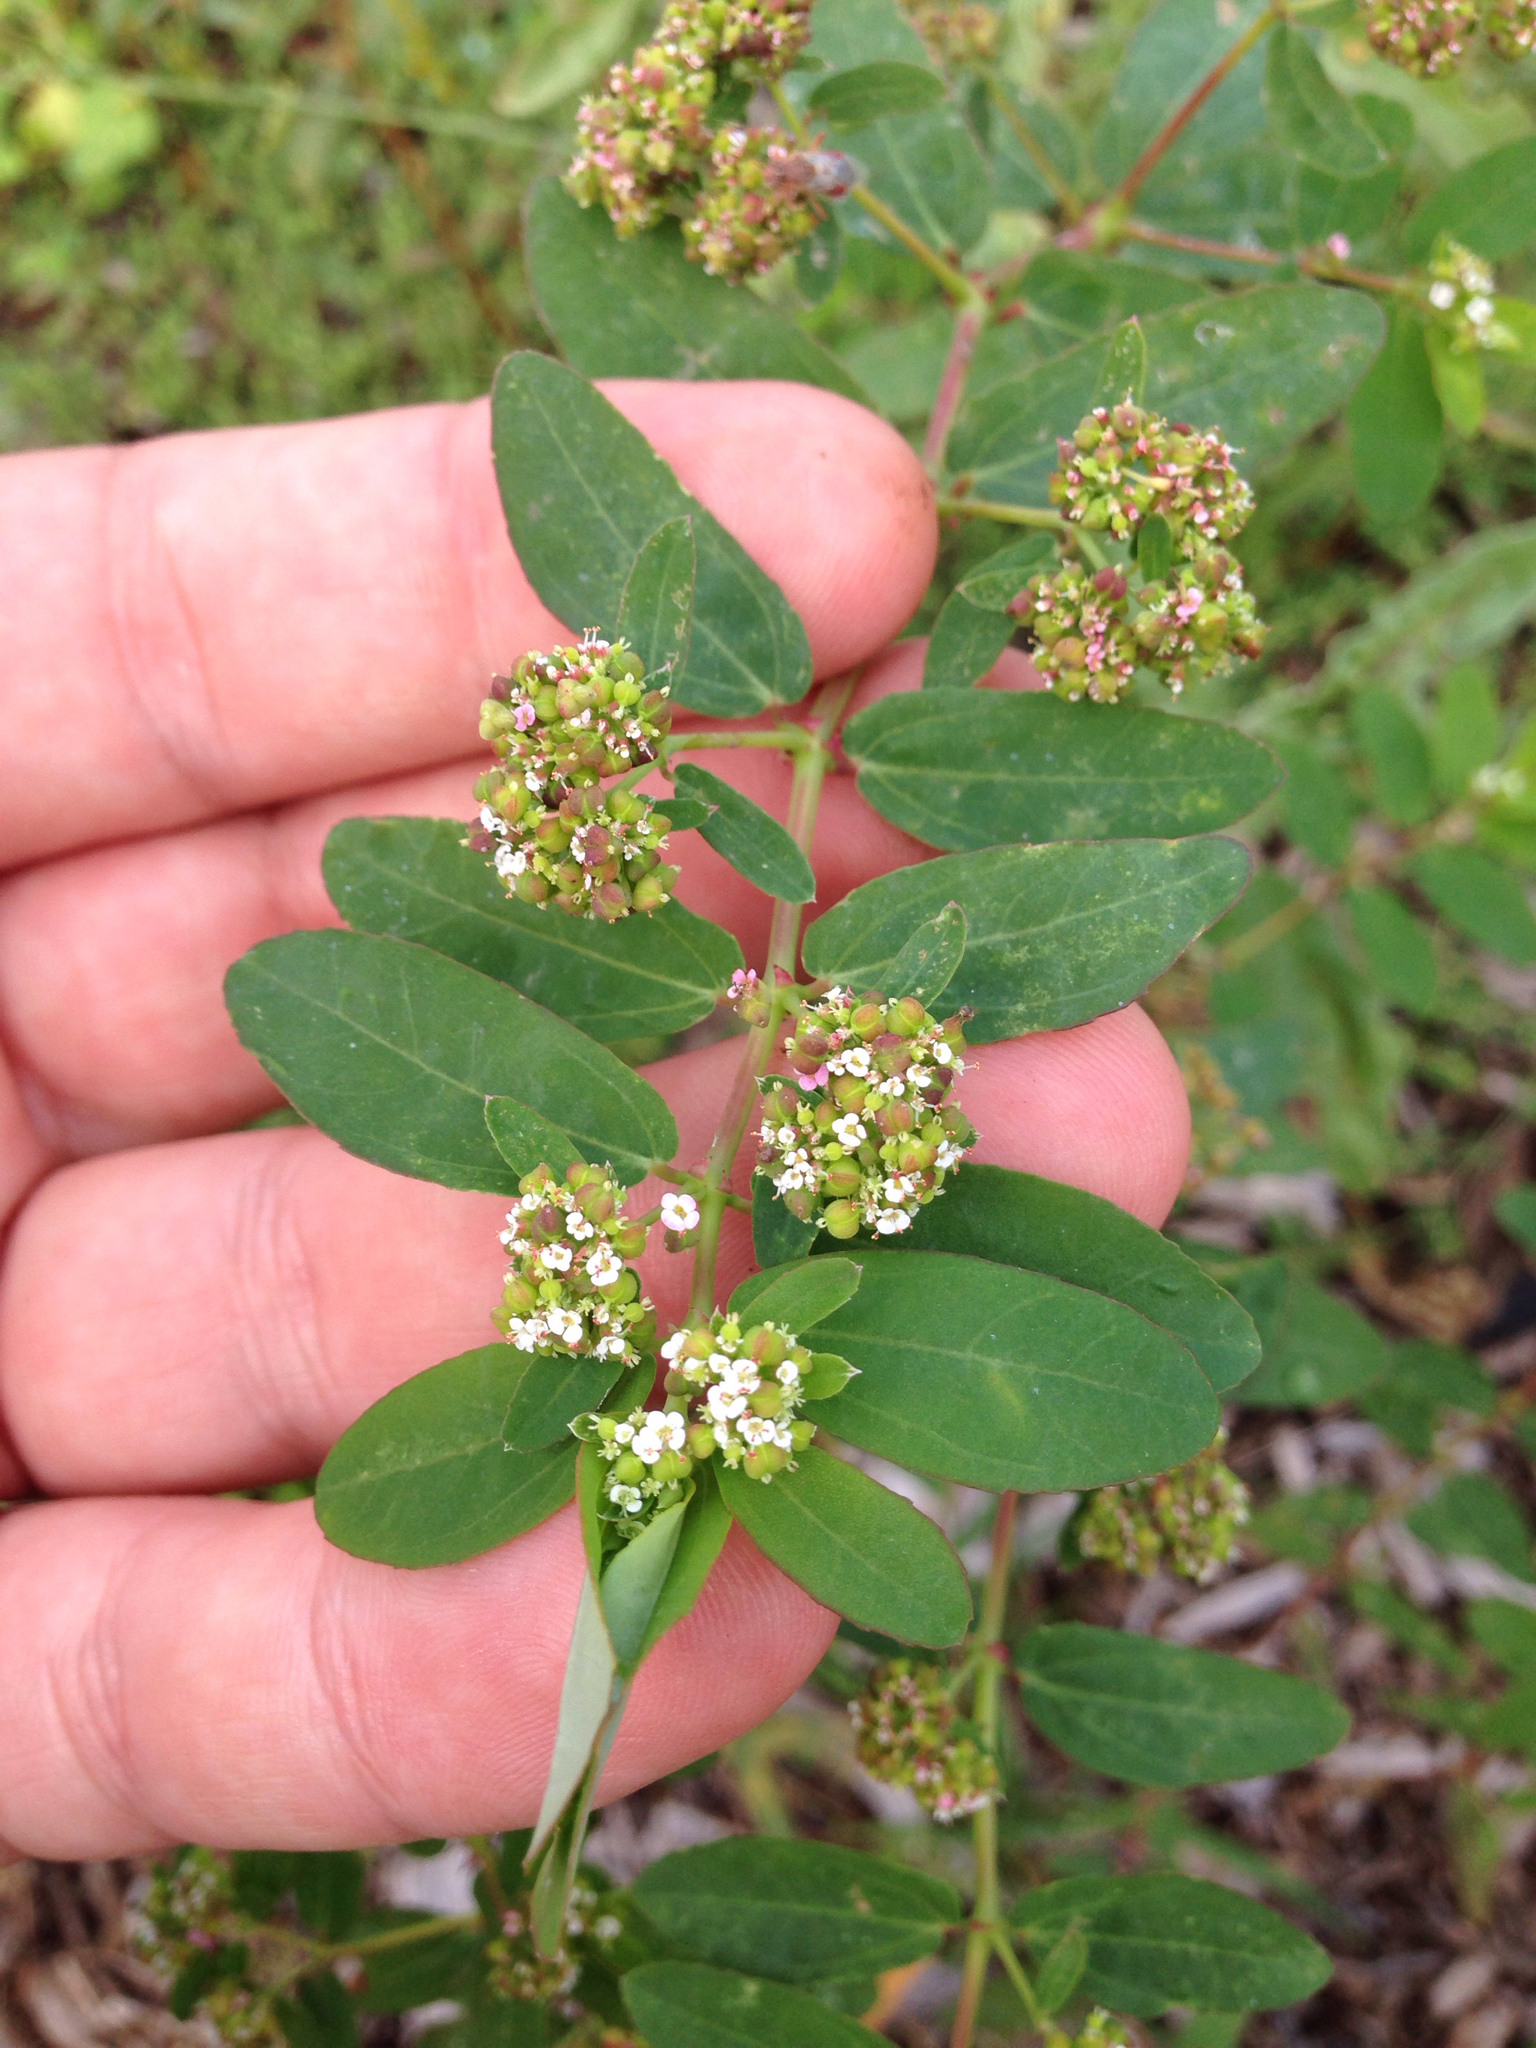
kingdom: Plantae
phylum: Tracheophyta
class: Magnoliopsida
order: Malpighiales
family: Euphorbiaceae
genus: Euphorbia
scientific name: Euphorbia hypericifolia
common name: Graceful sandmat
